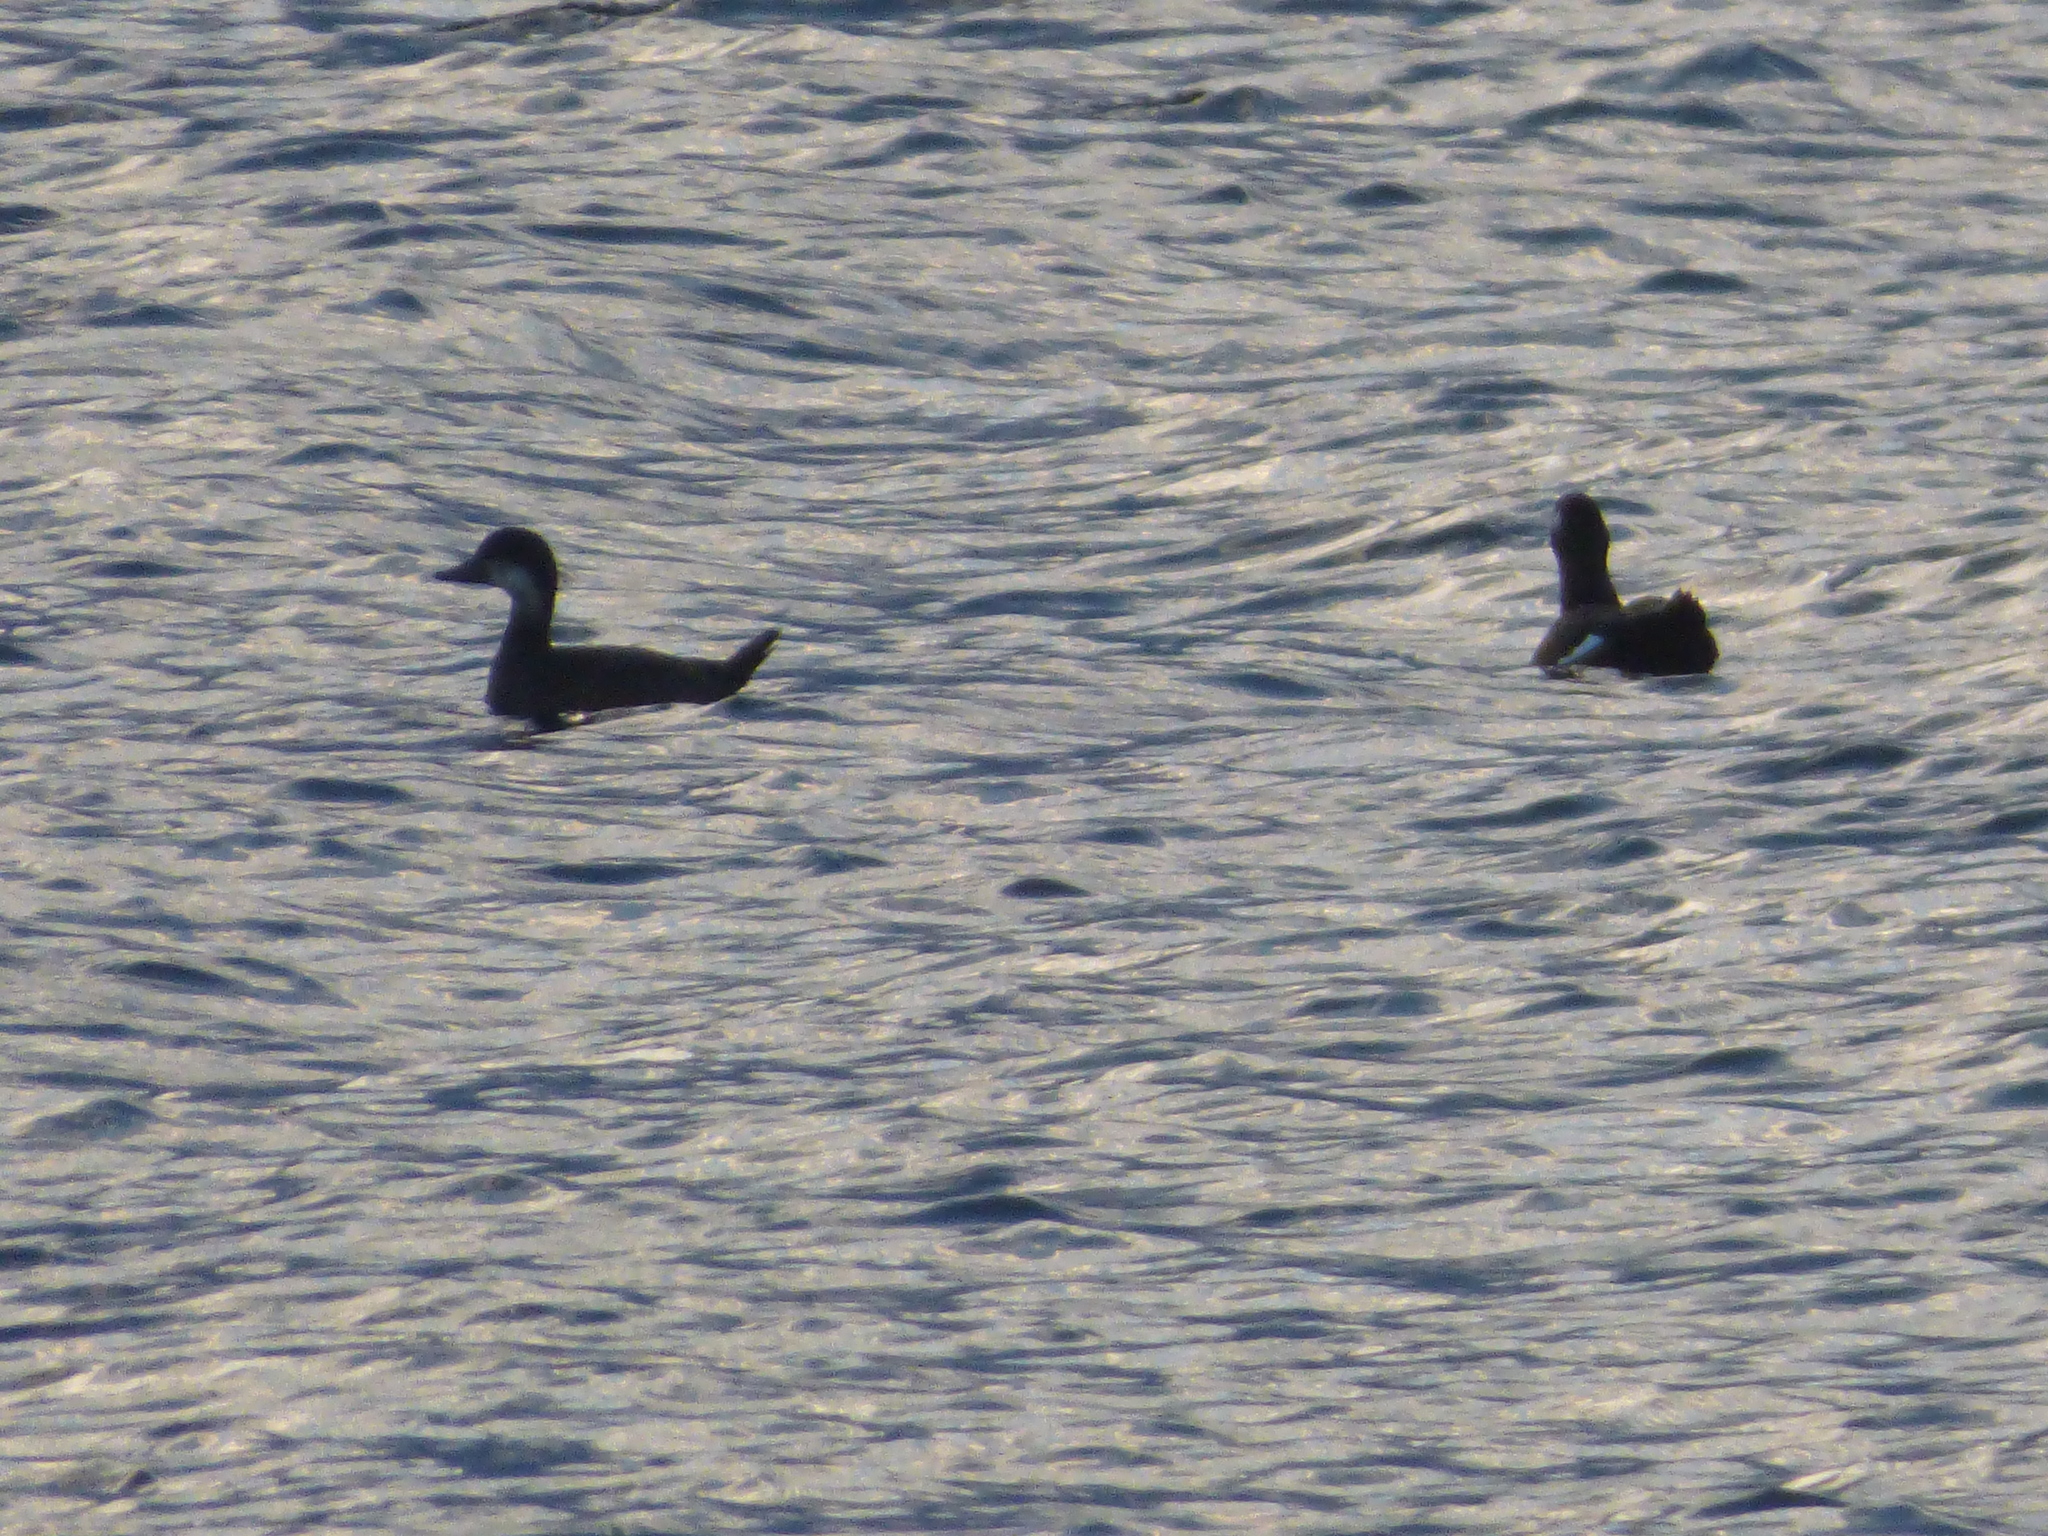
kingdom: Animalia
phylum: Chordata
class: Aves
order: Anseriformes
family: Anatidae
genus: Melanitta
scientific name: Melanitta americana
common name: Black scoter
